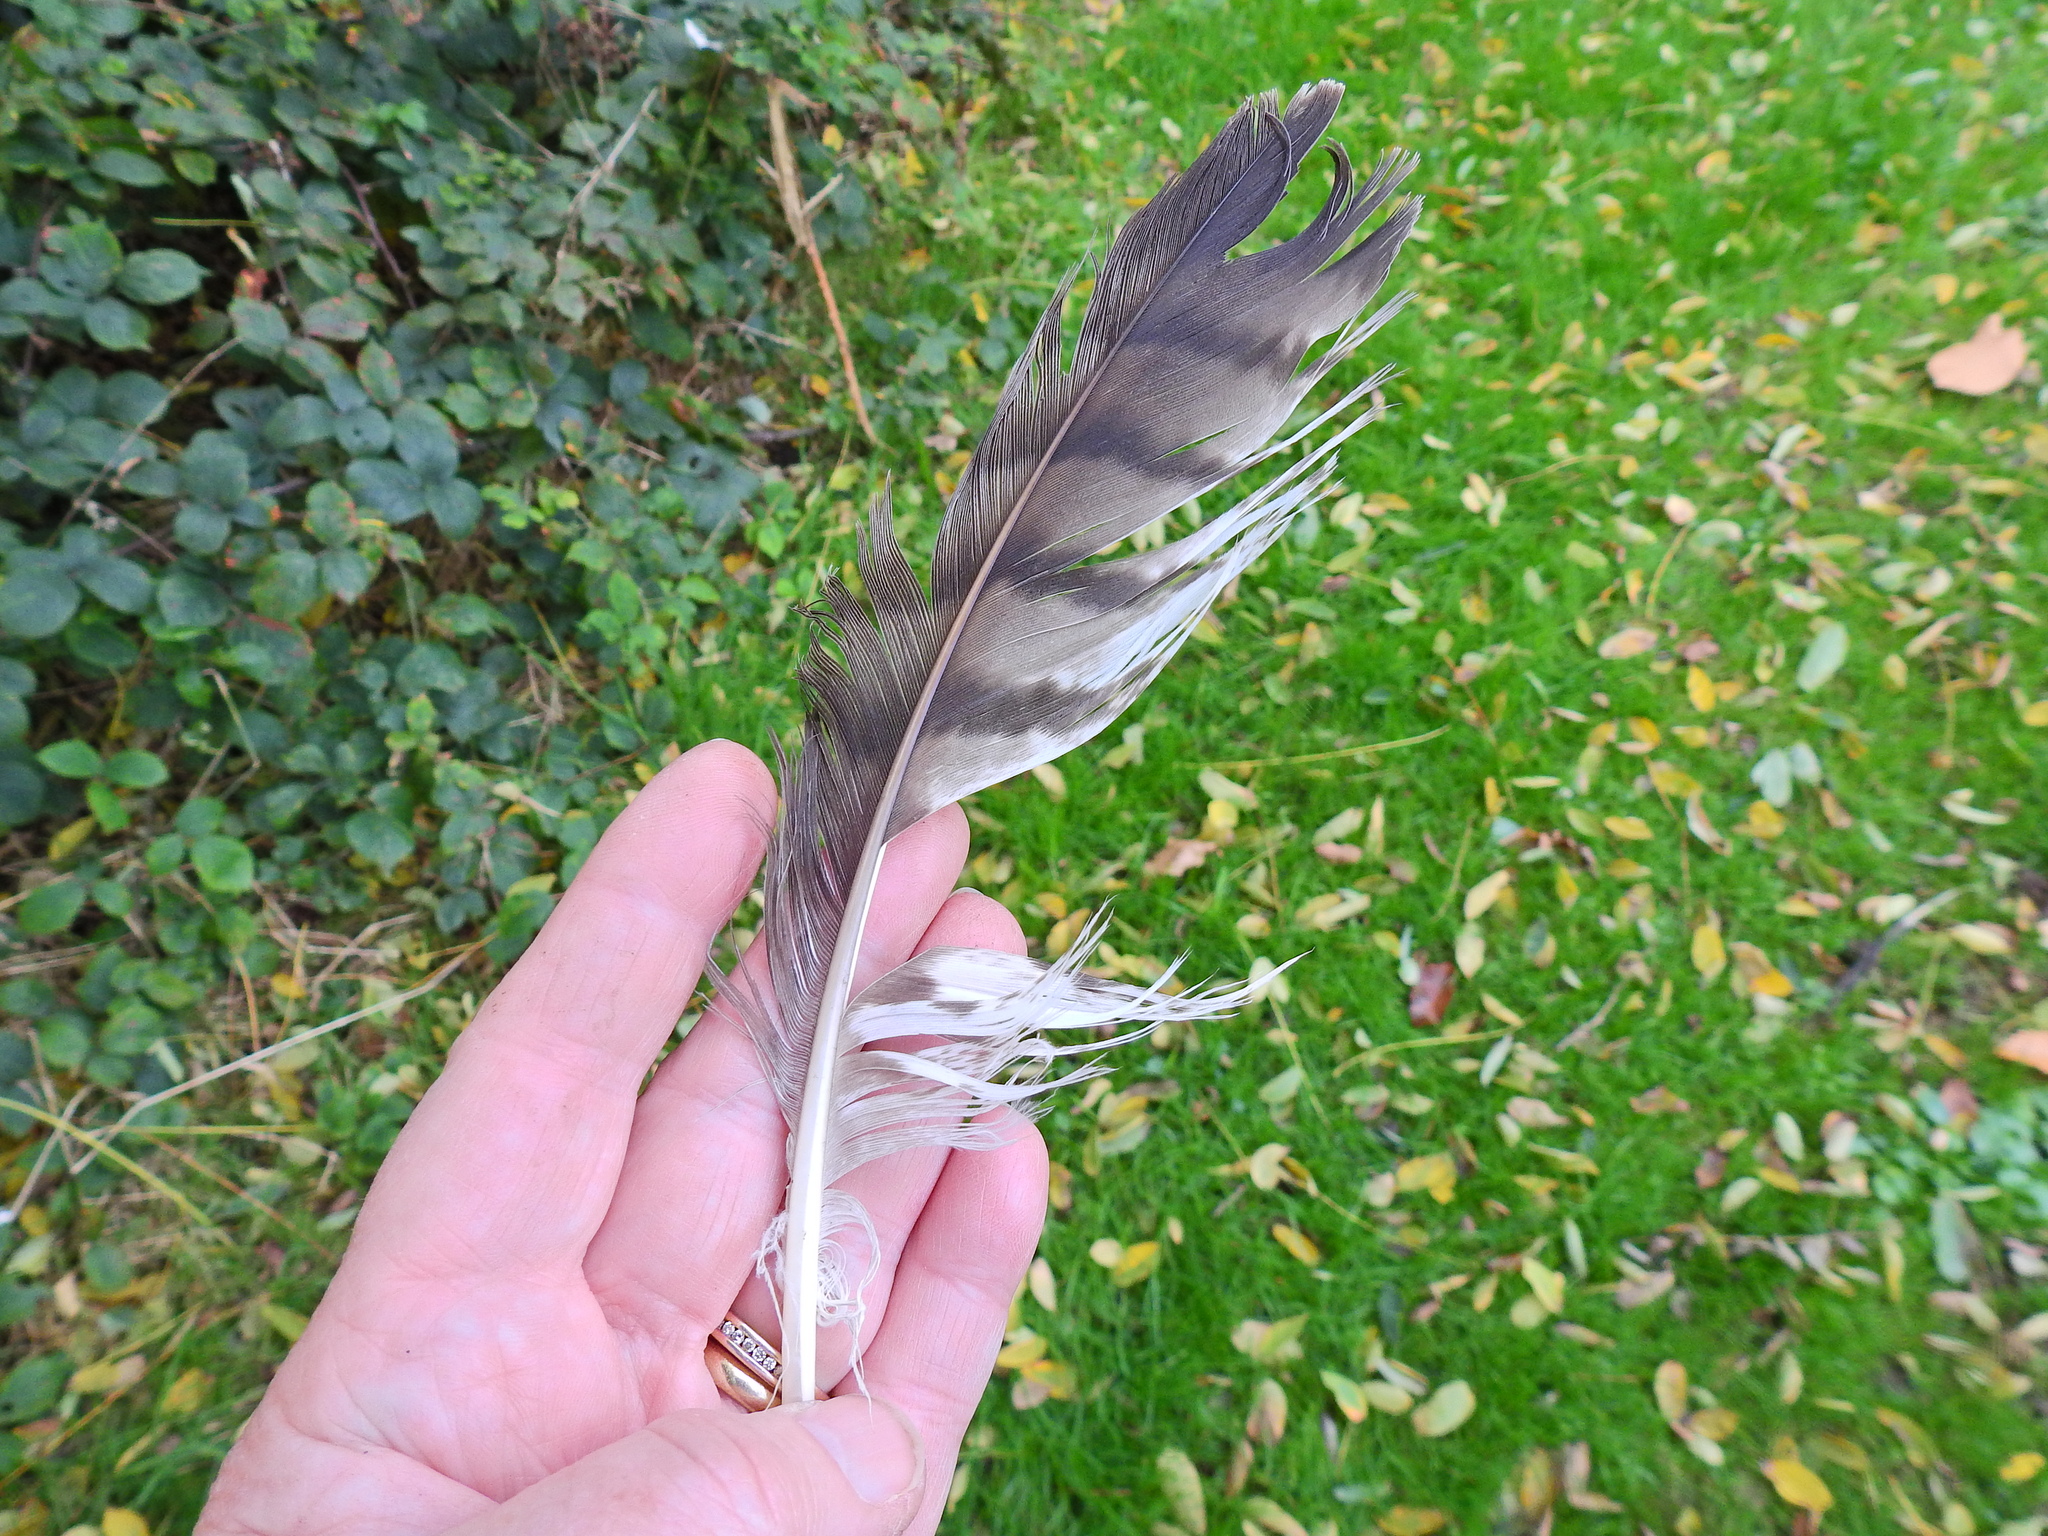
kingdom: Animalia
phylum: Chordata
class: Aves
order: Accipitriformes
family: Accipitridae
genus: Buteo
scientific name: Buteo buteo
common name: Common buzzard
